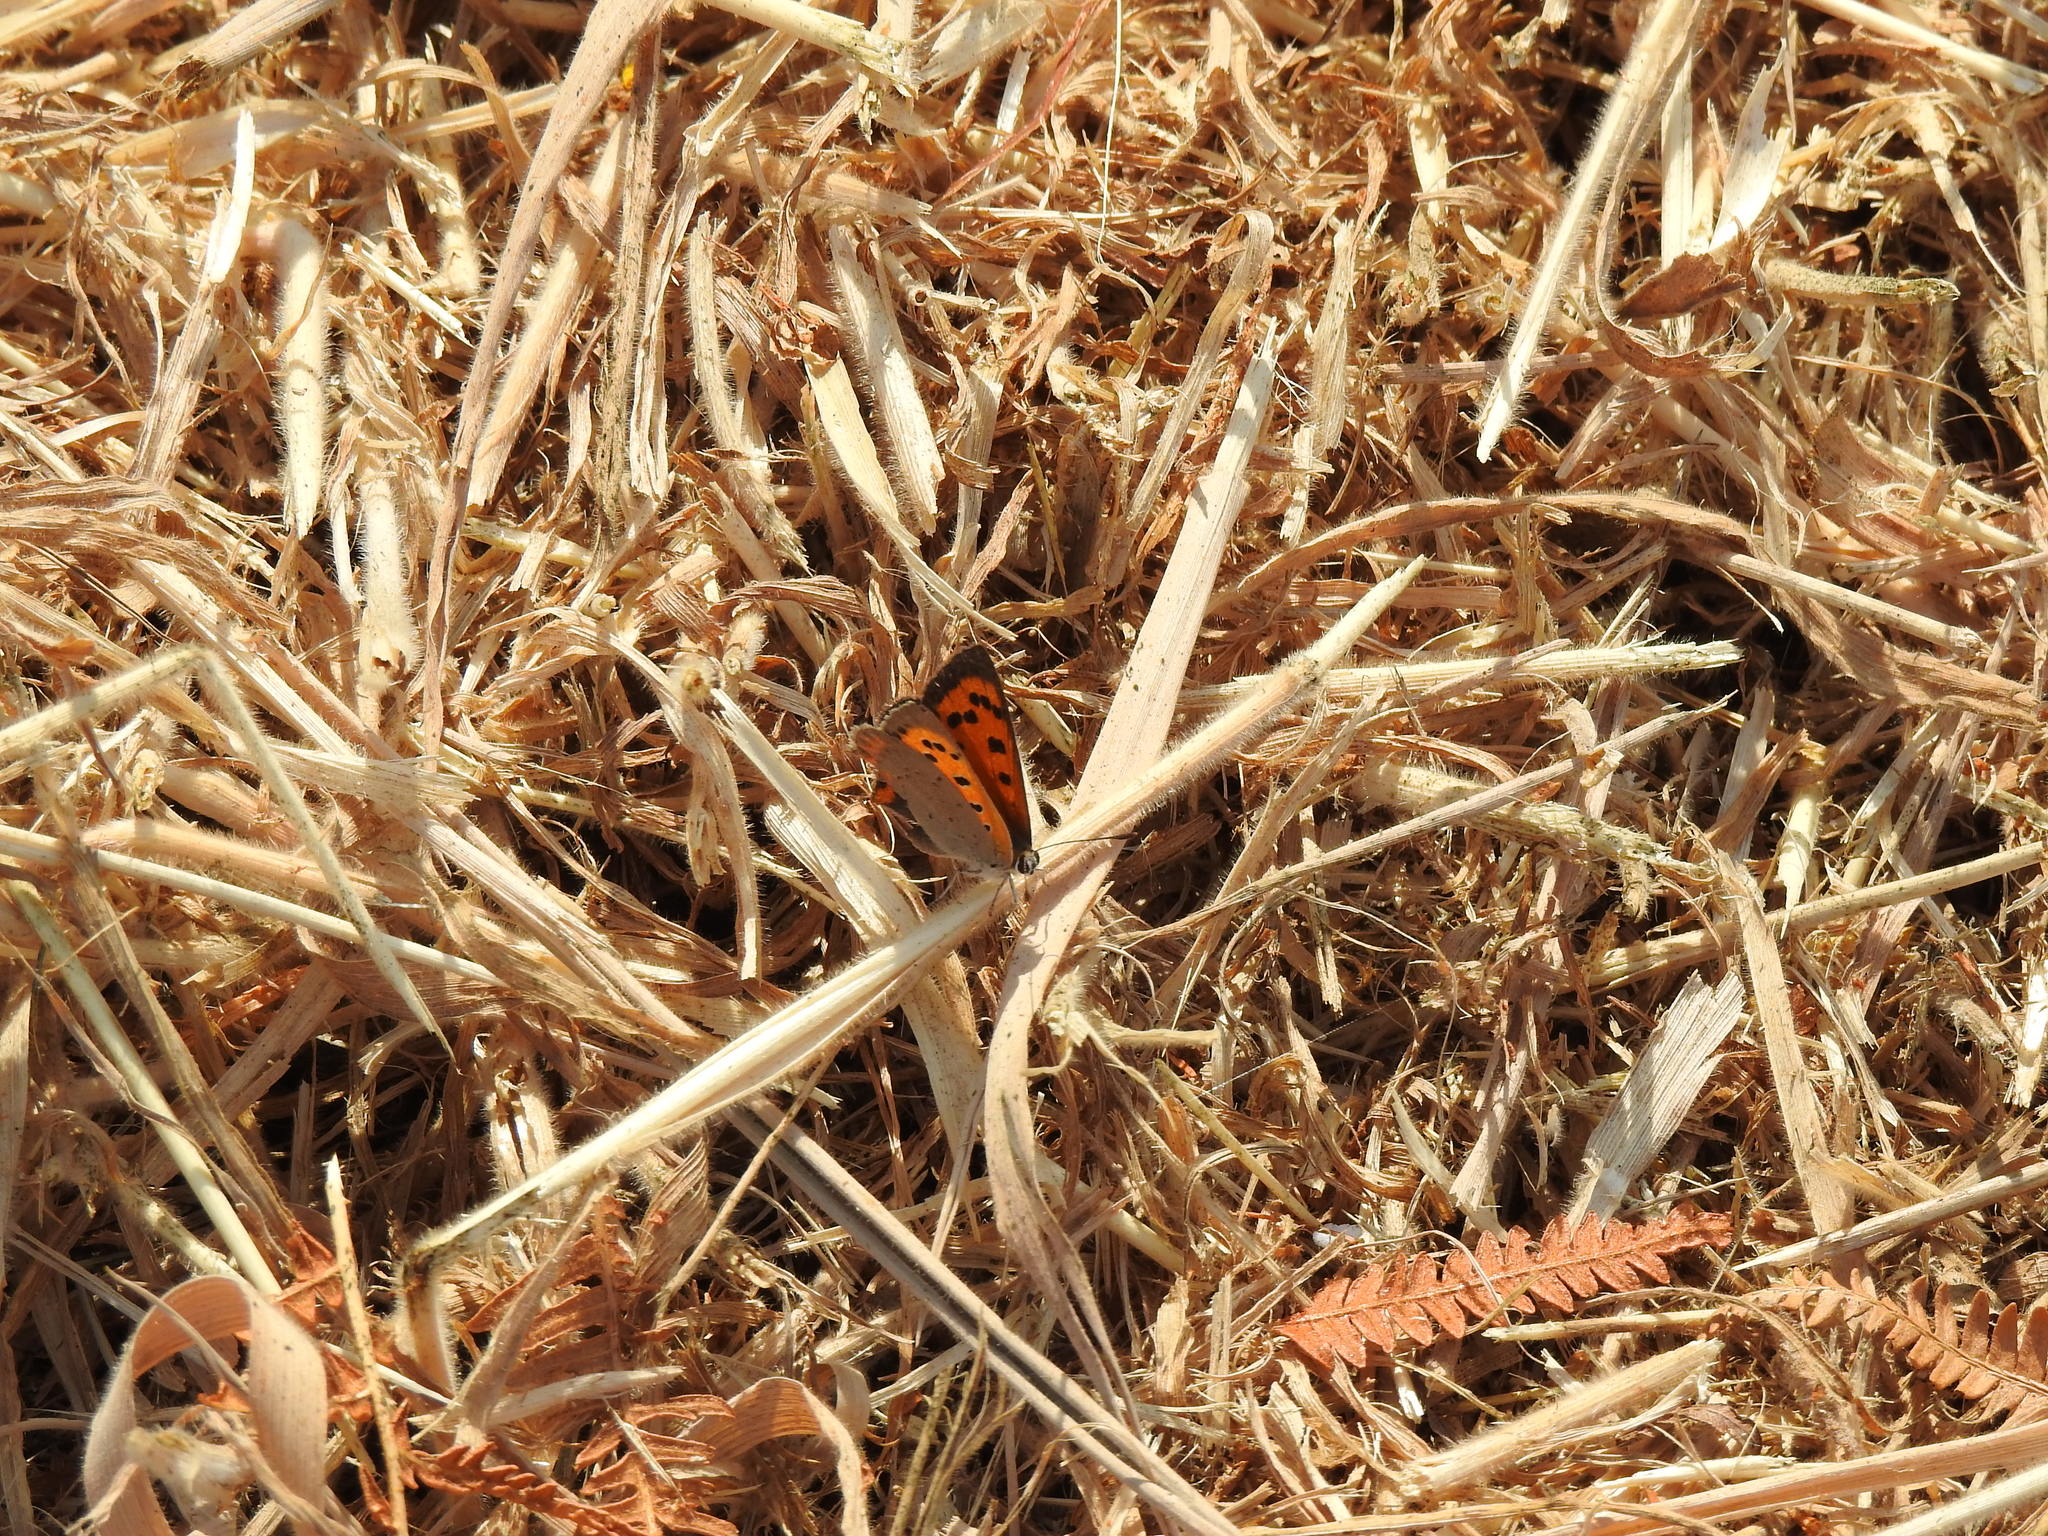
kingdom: Animalia
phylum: Arthropoda
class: Insecta
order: Lepidoptera
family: Lycaenidae
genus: Lycaena
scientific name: Lycaena phlaeas
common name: Small copper
